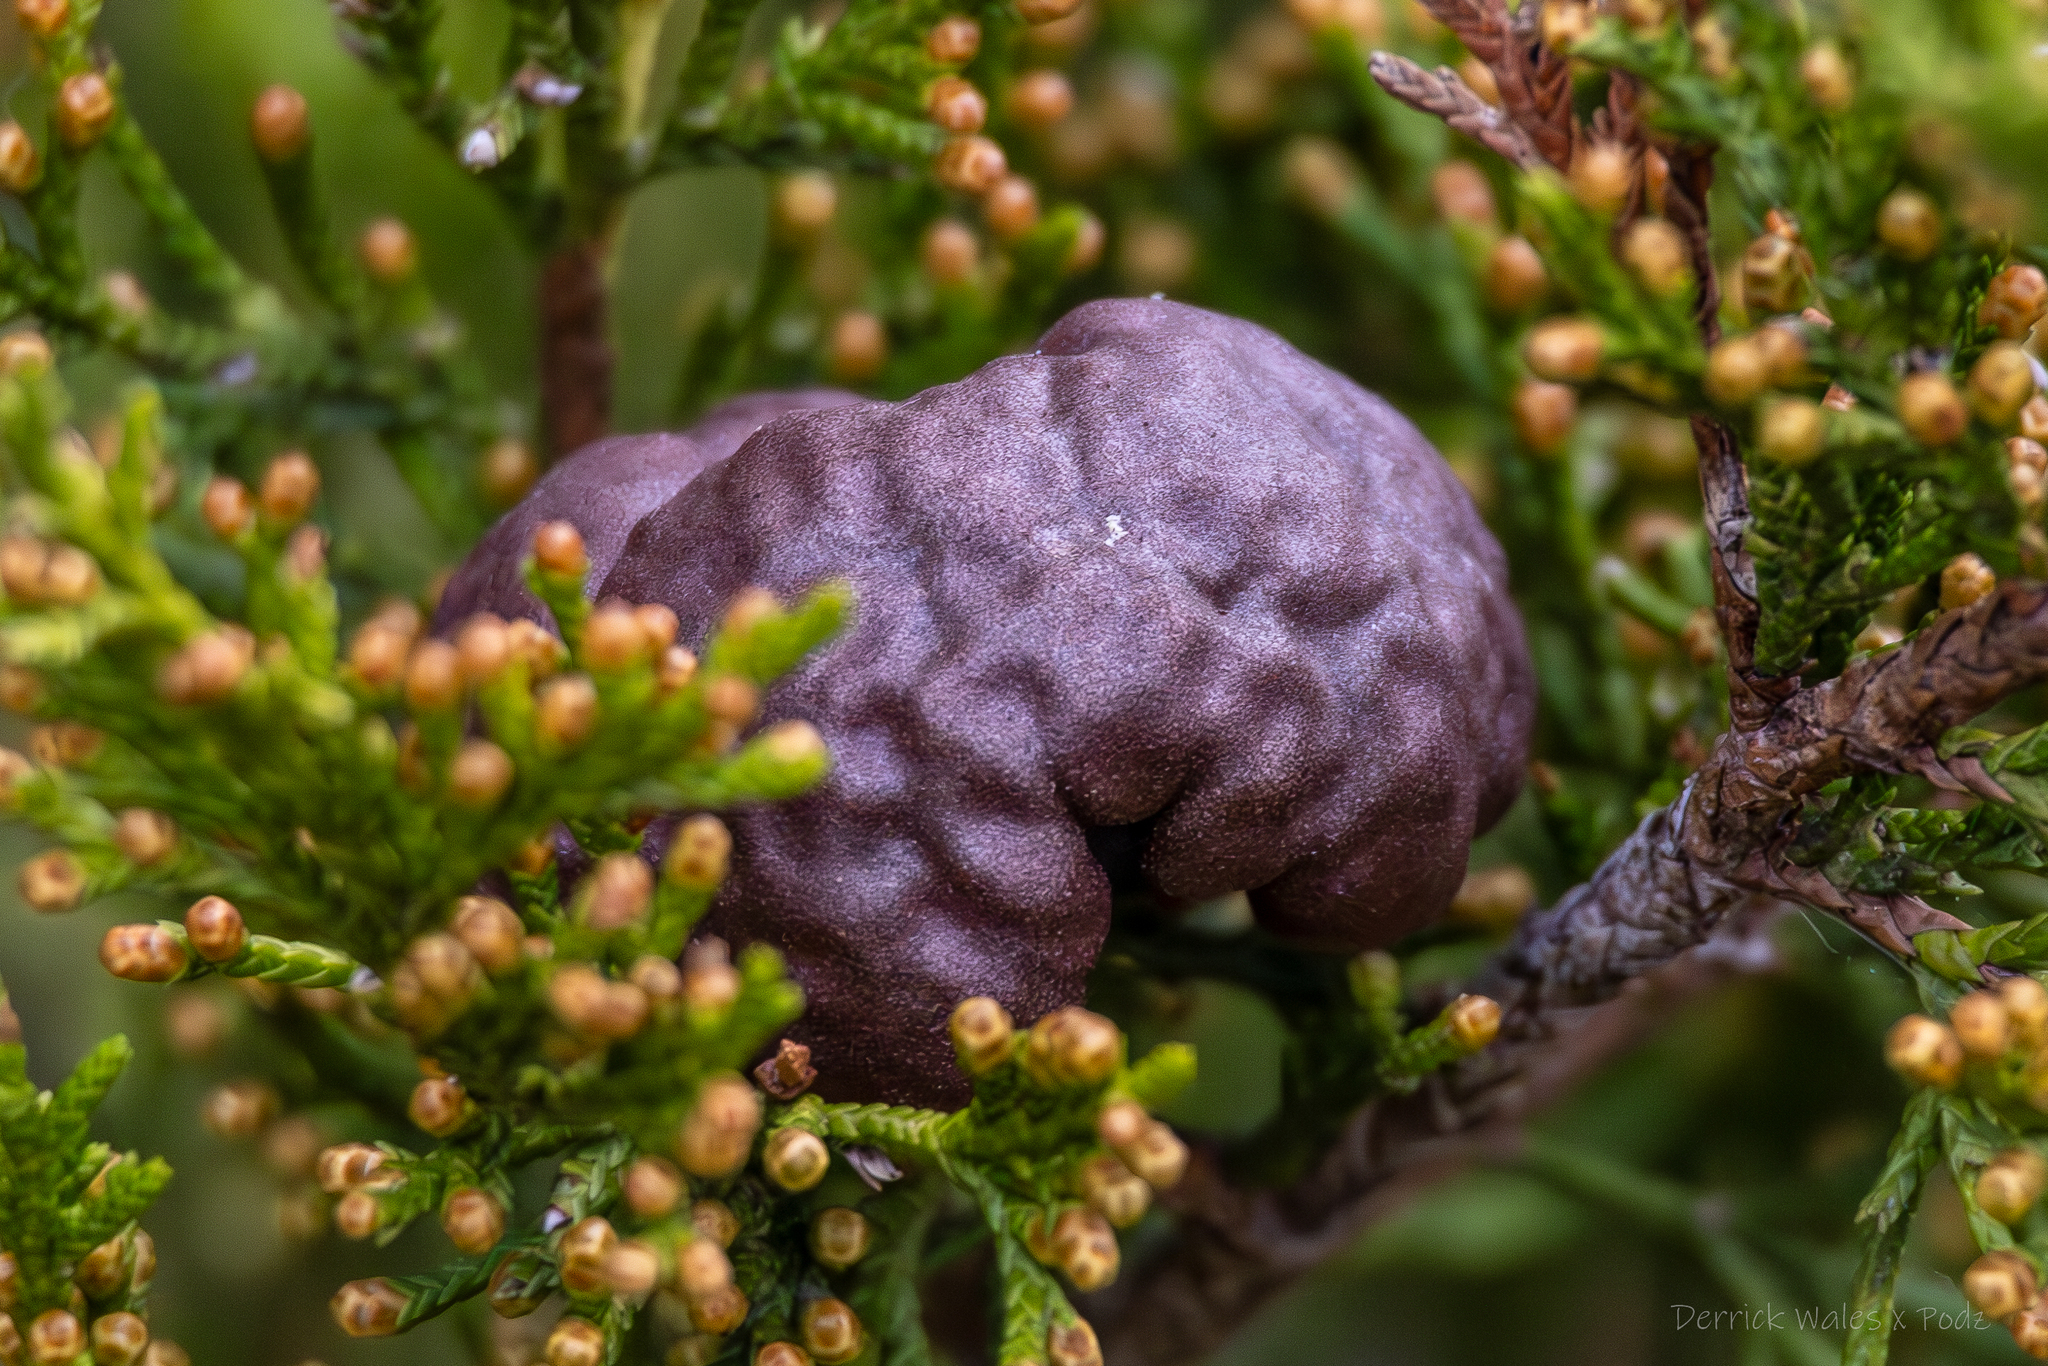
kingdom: Fungi
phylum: Basidiomycota
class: Pucciniomycetes
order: Pucciniales
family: Gymnosporangiaceae
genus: Gymnosporangium
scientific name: Gymnosporangium juniperi-virginianae
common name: Juniper-apple rust
